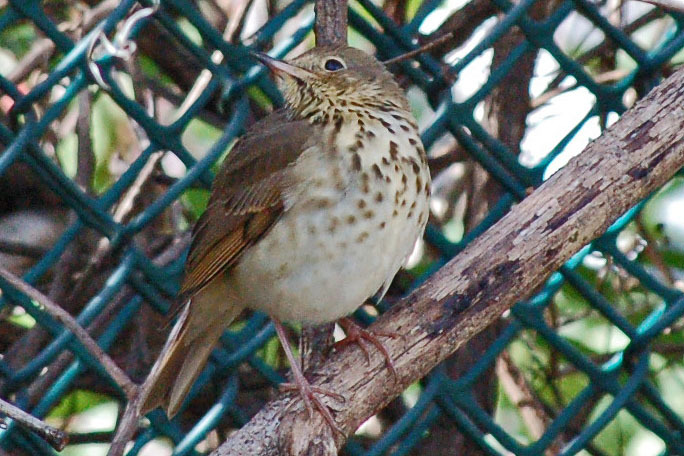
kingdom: Animalia
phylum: Chordata
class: Aves
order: Passeriformes
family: Turdidae
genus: Catharus
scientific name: Catharus guttatus
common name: Hermit thrush
